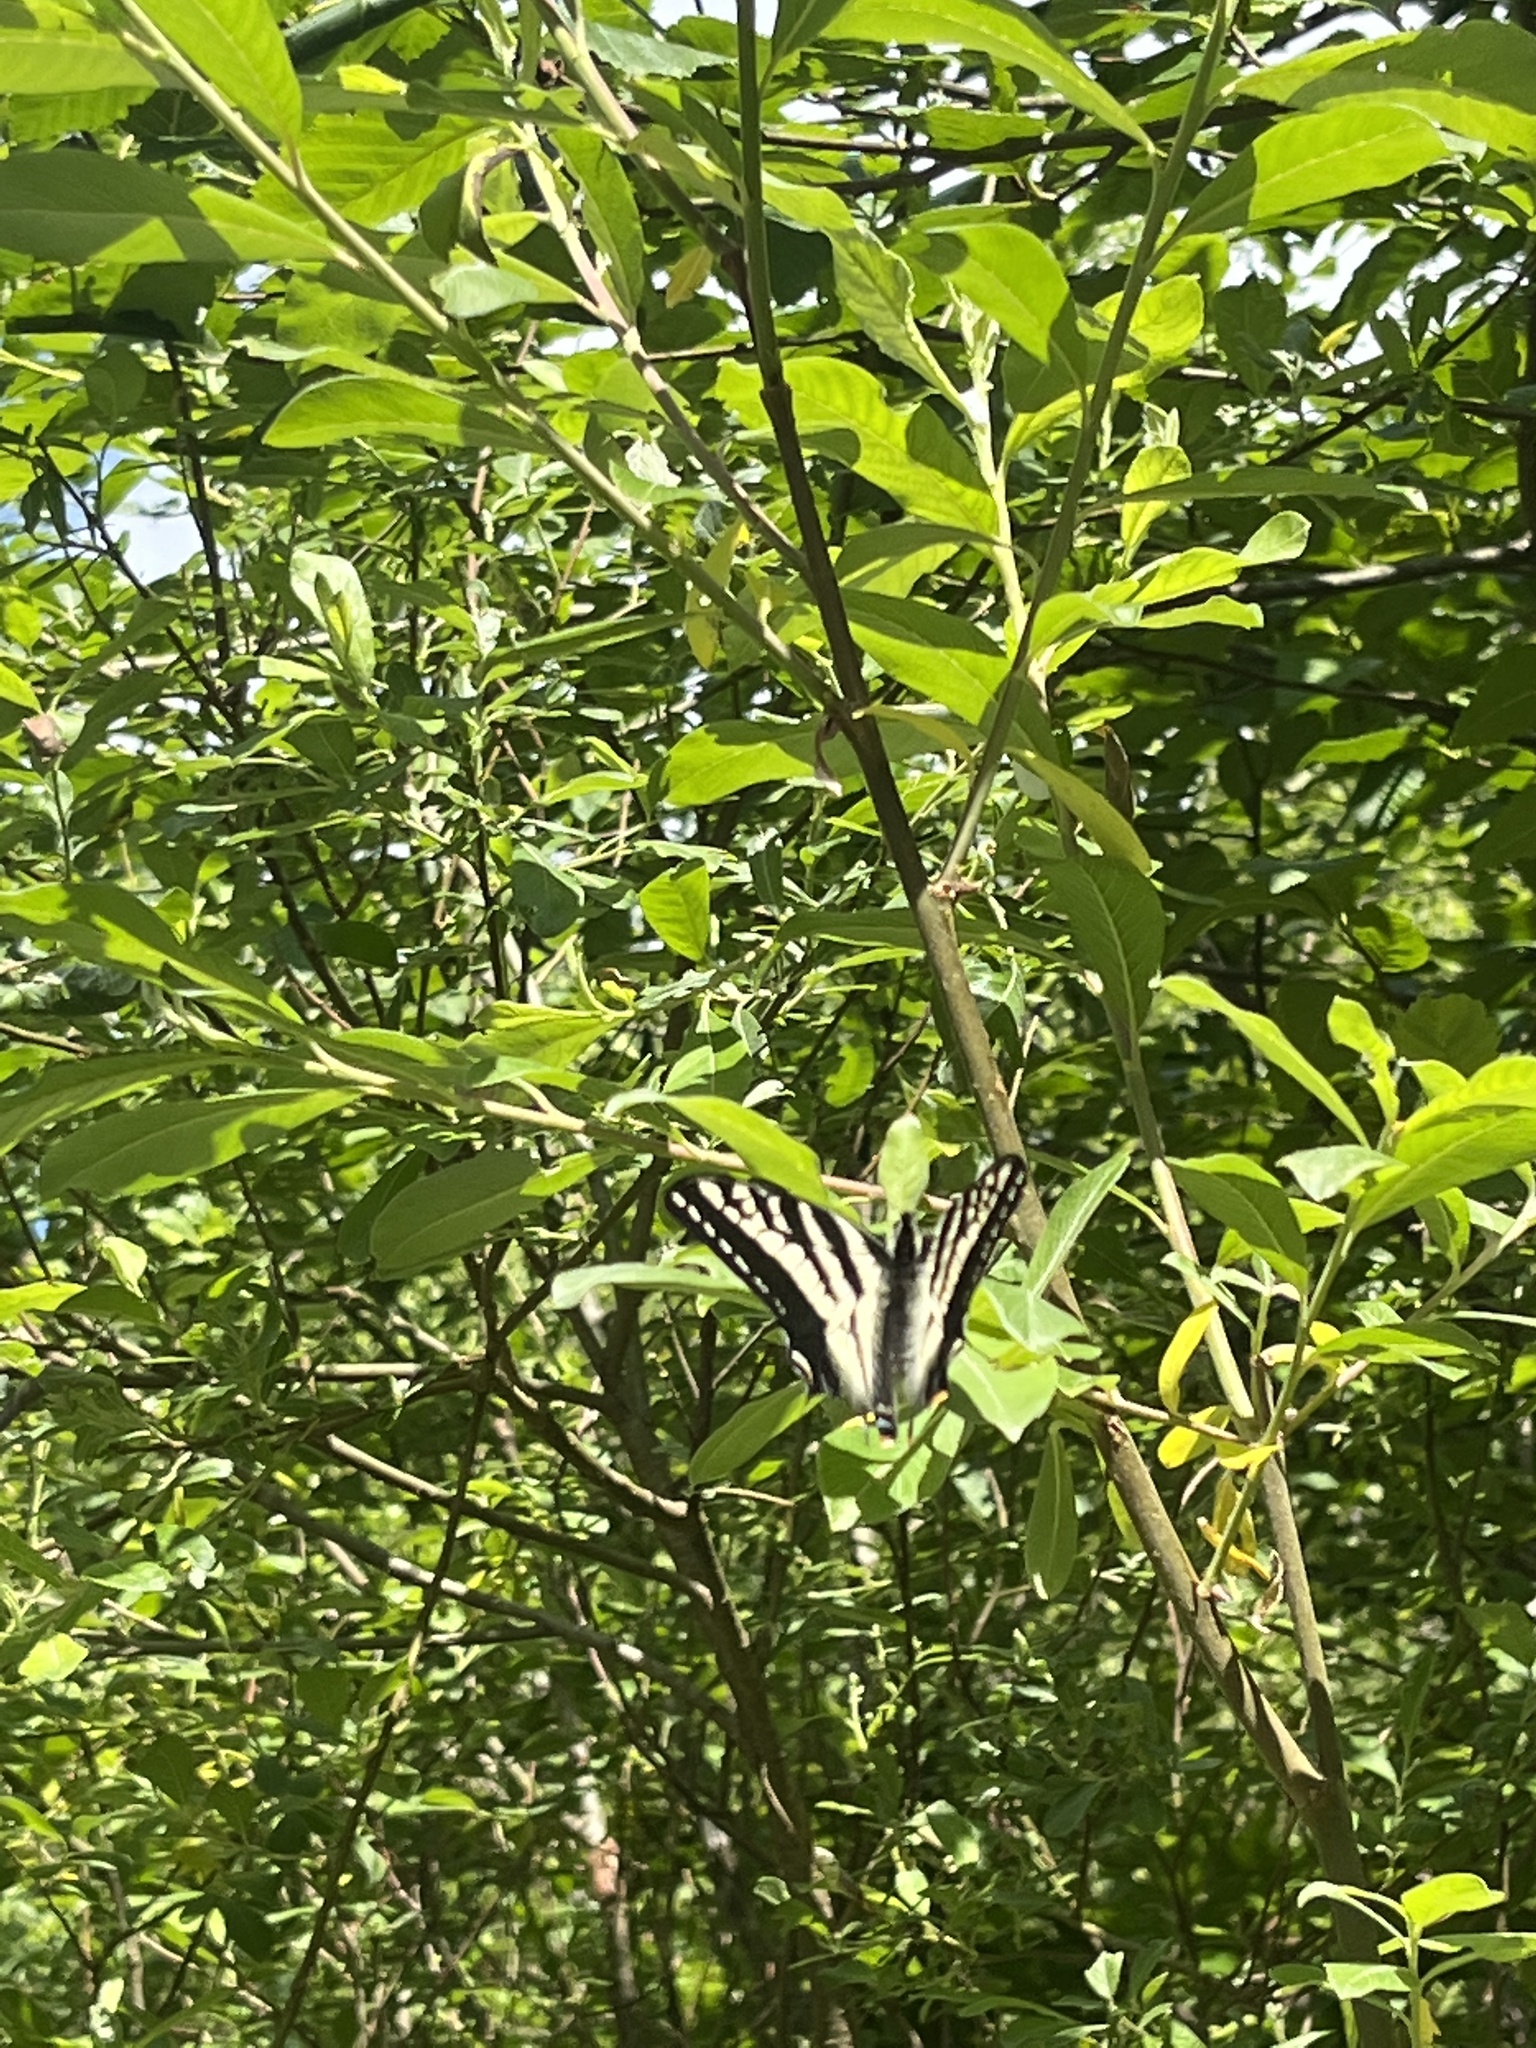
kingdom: Animalia
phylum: Arthropoda
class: Insecta
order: Lepidoptera
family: Papilionidae
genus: Papilio
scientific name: Papilio eurymedon
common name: Pale tiger swallowtail
